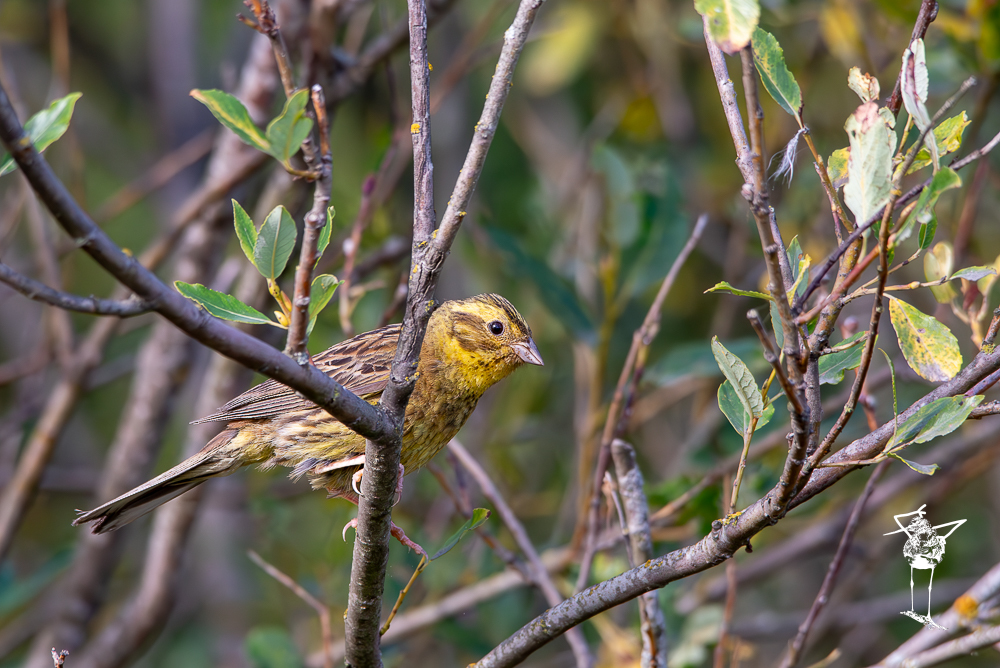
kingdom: Animalia
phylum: Chordata
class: Aves
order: Passeriformes
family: Emberizidae
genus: Emberiza
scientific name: Emberiza citrinella
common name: Yellowhammer
